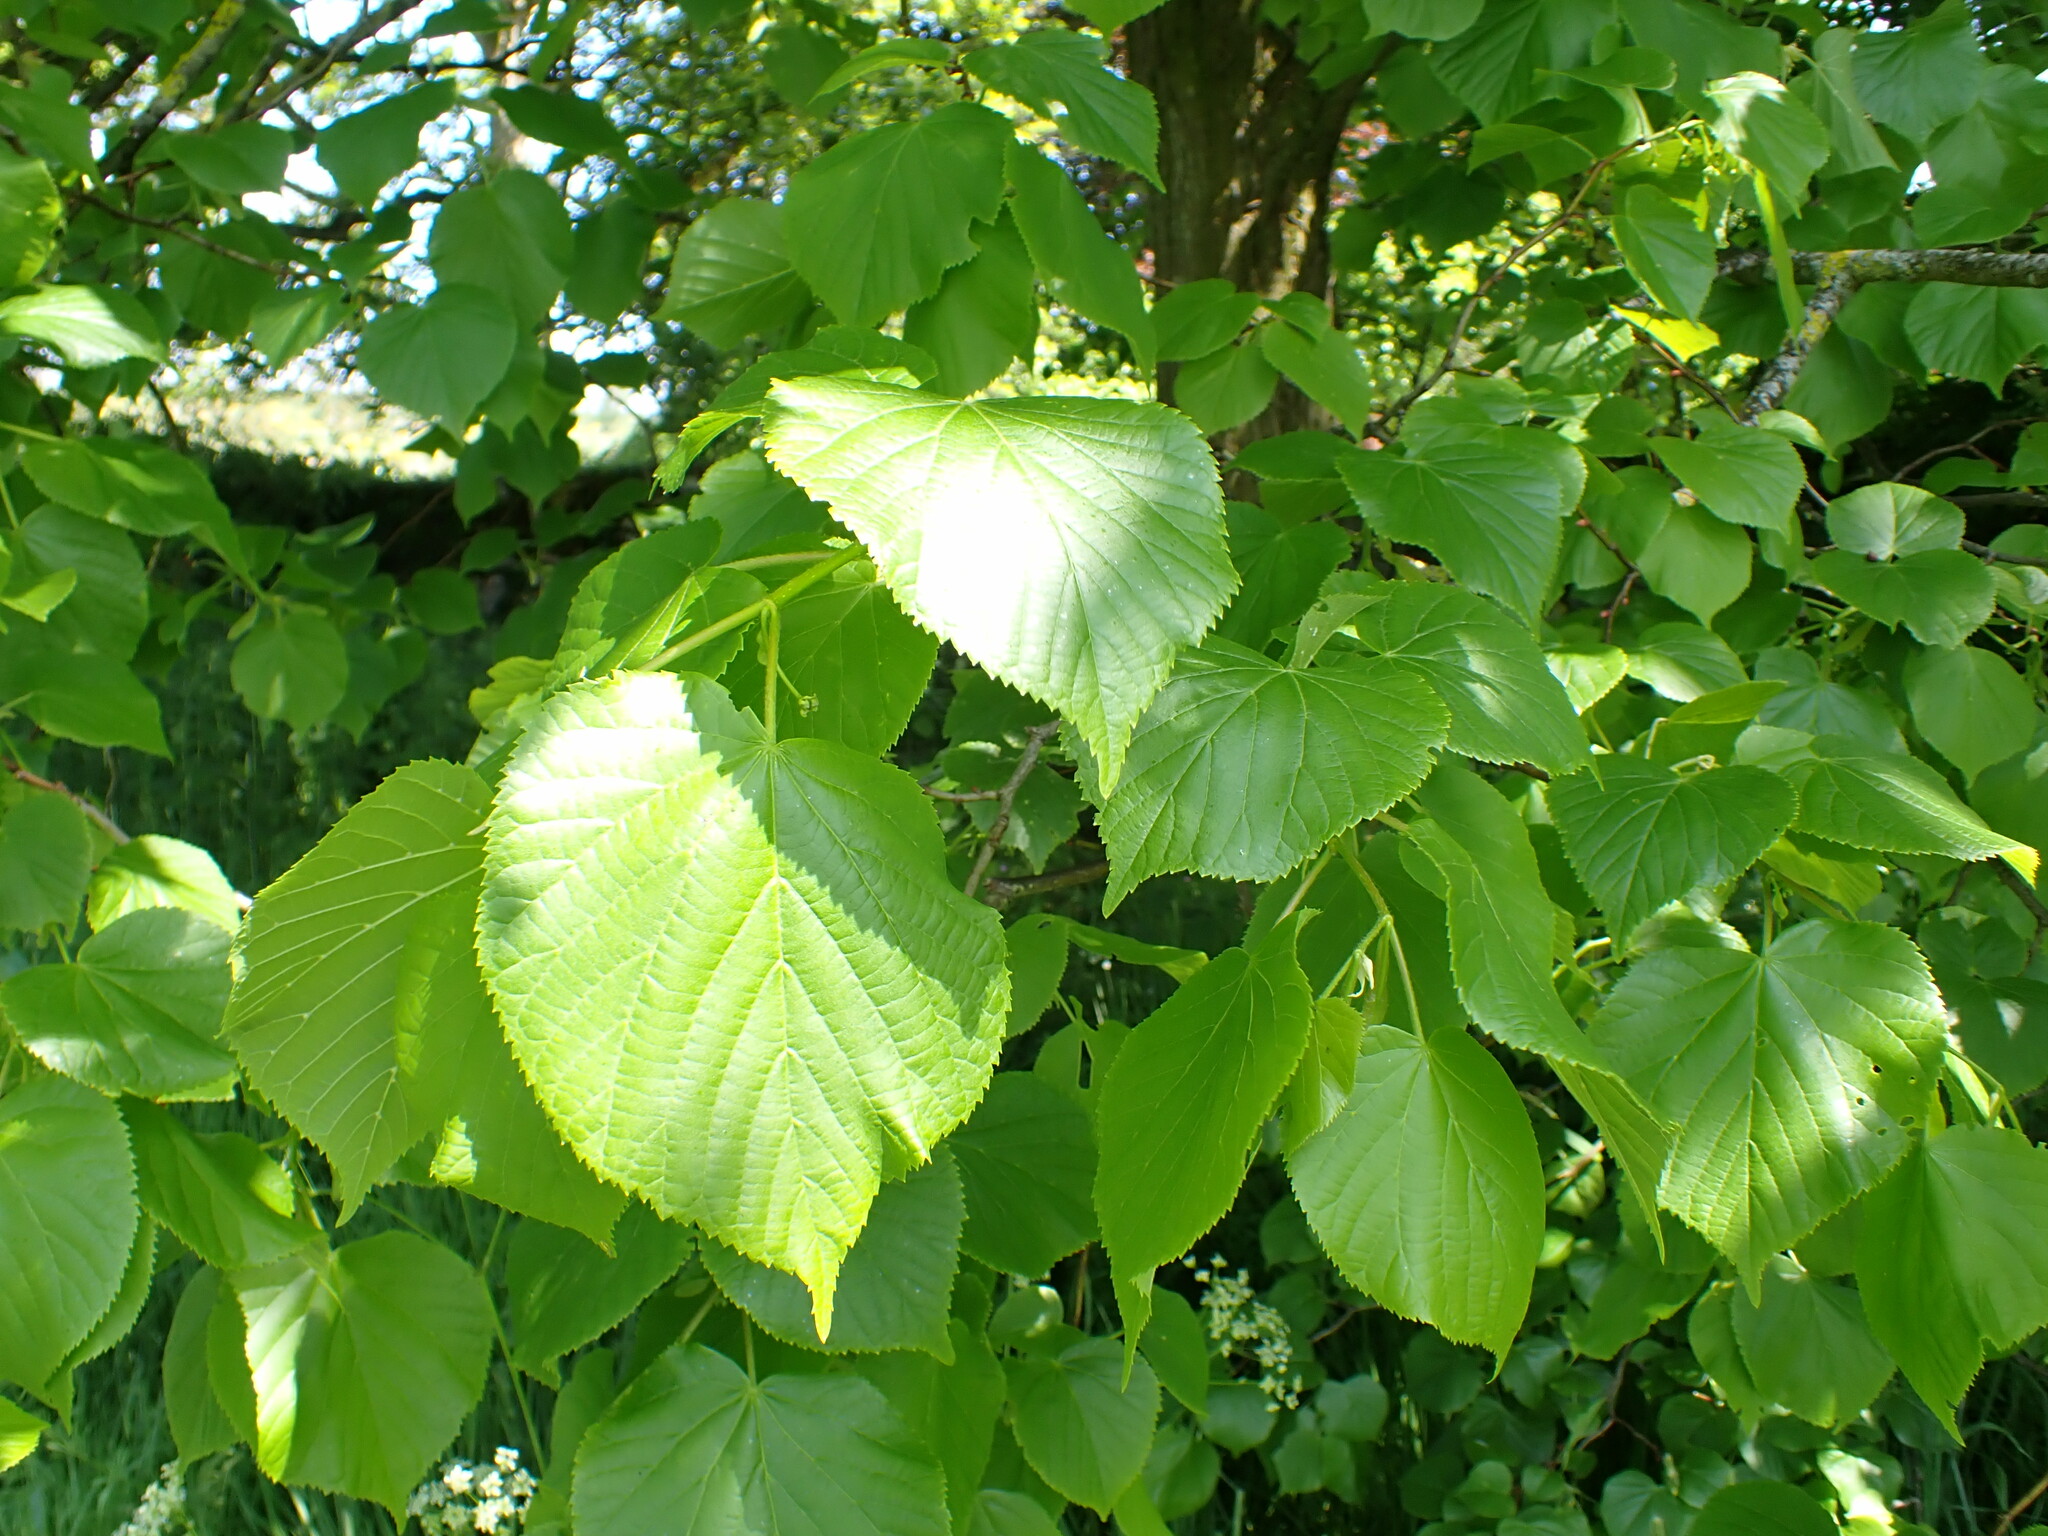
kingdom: Plantae
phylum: Tracheophyta
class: Magnoliopsida
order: Malvales
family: Malvaceae
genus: Tilia
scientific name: Tilia europaea
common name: European linden
